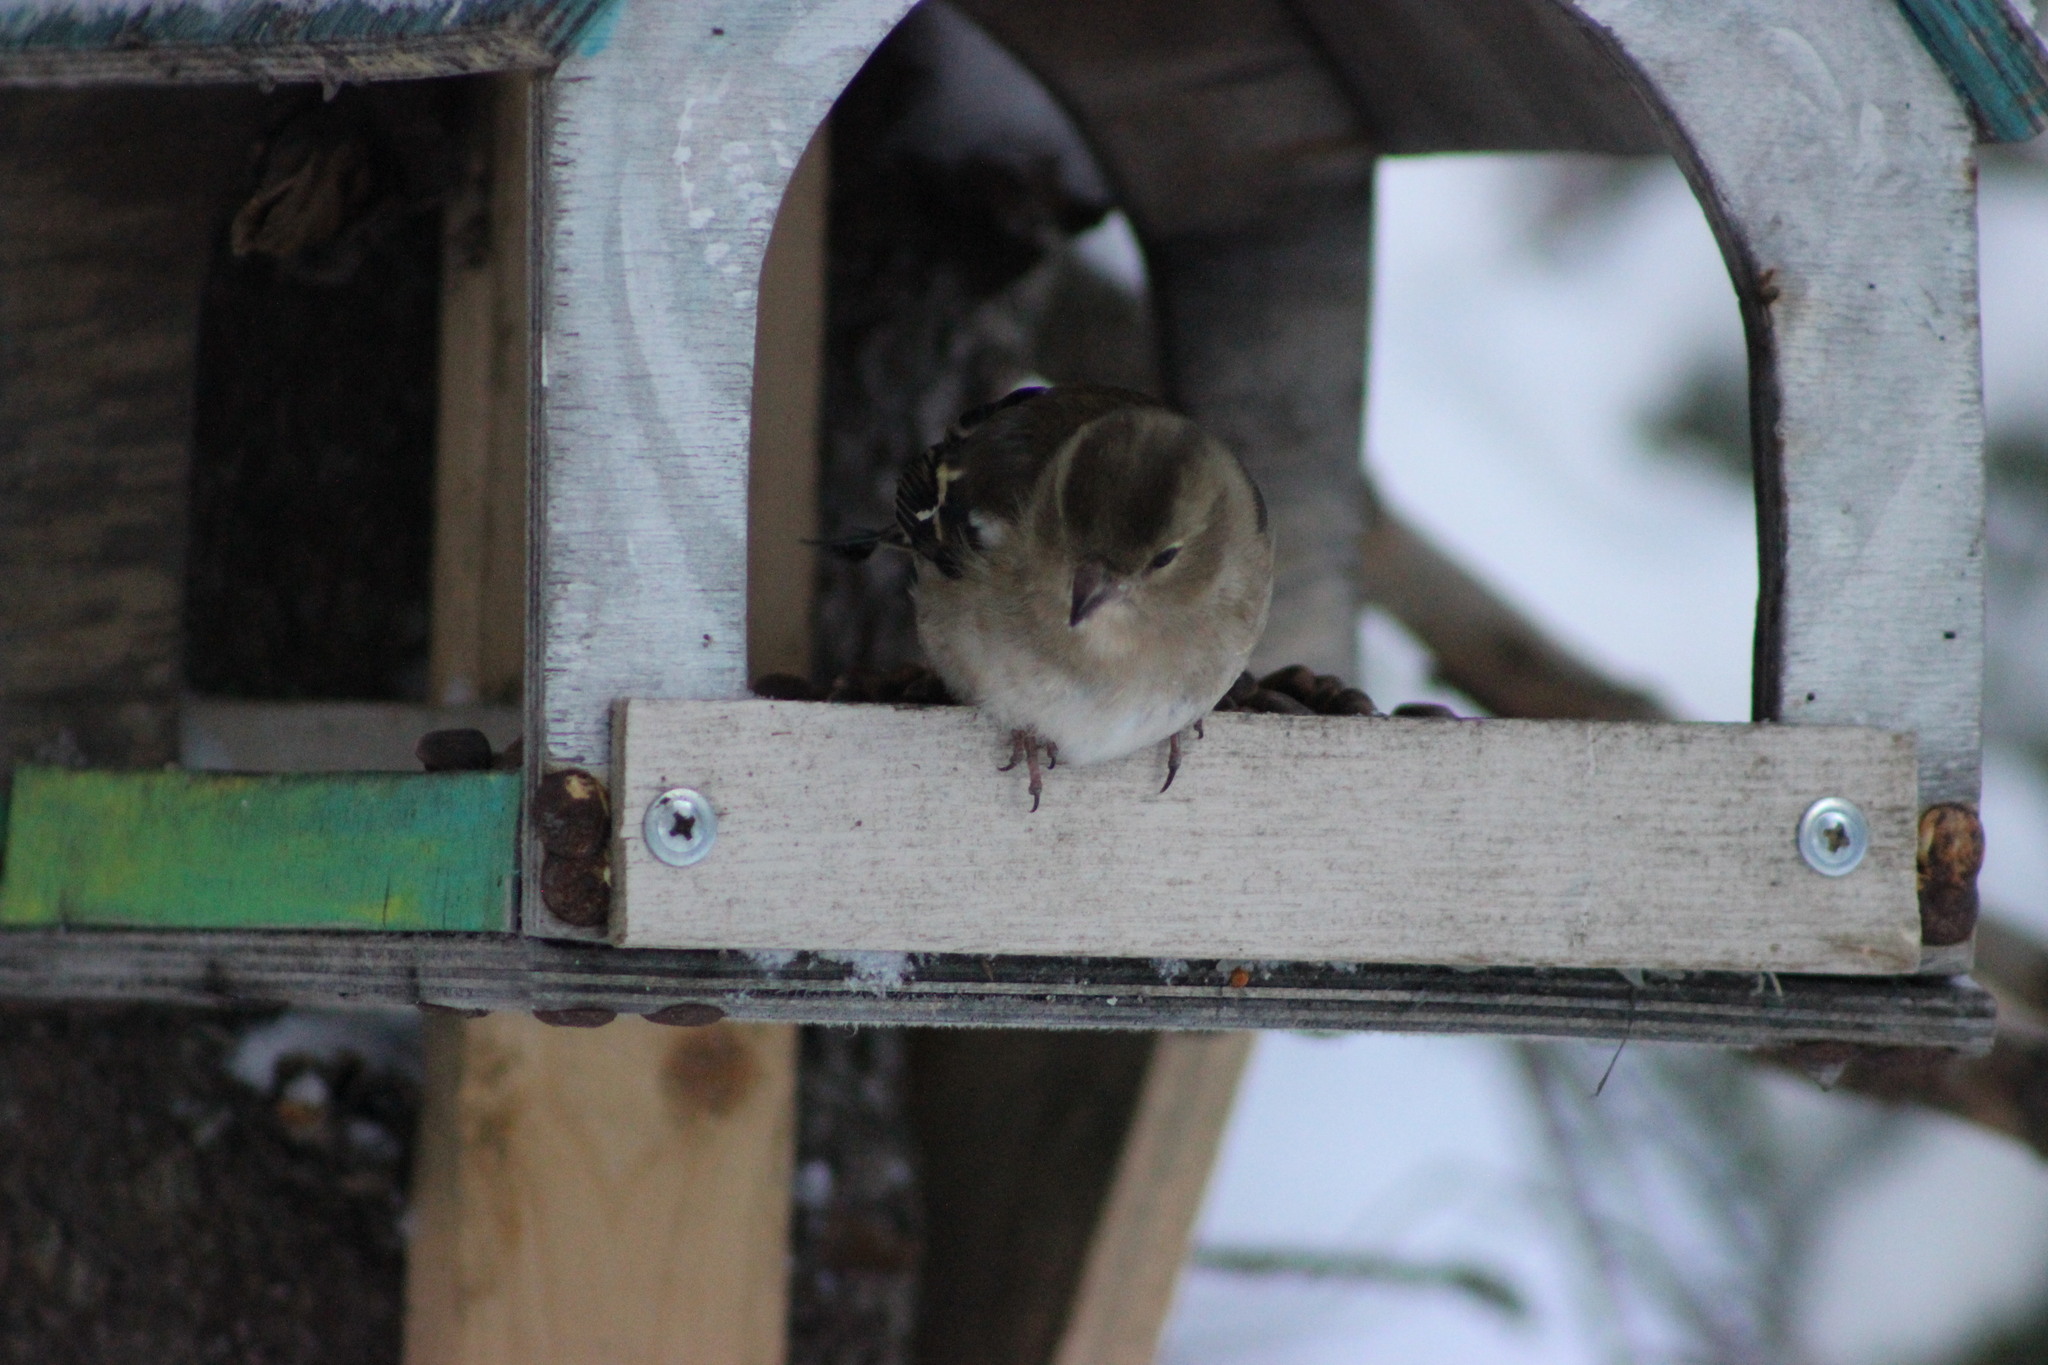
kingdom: Animalia
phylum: Chordata
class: Aves
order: Passeriformes
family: Fringillidae
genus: Fringilla
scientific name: Fringilla coelebs
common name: Common chaffinch
